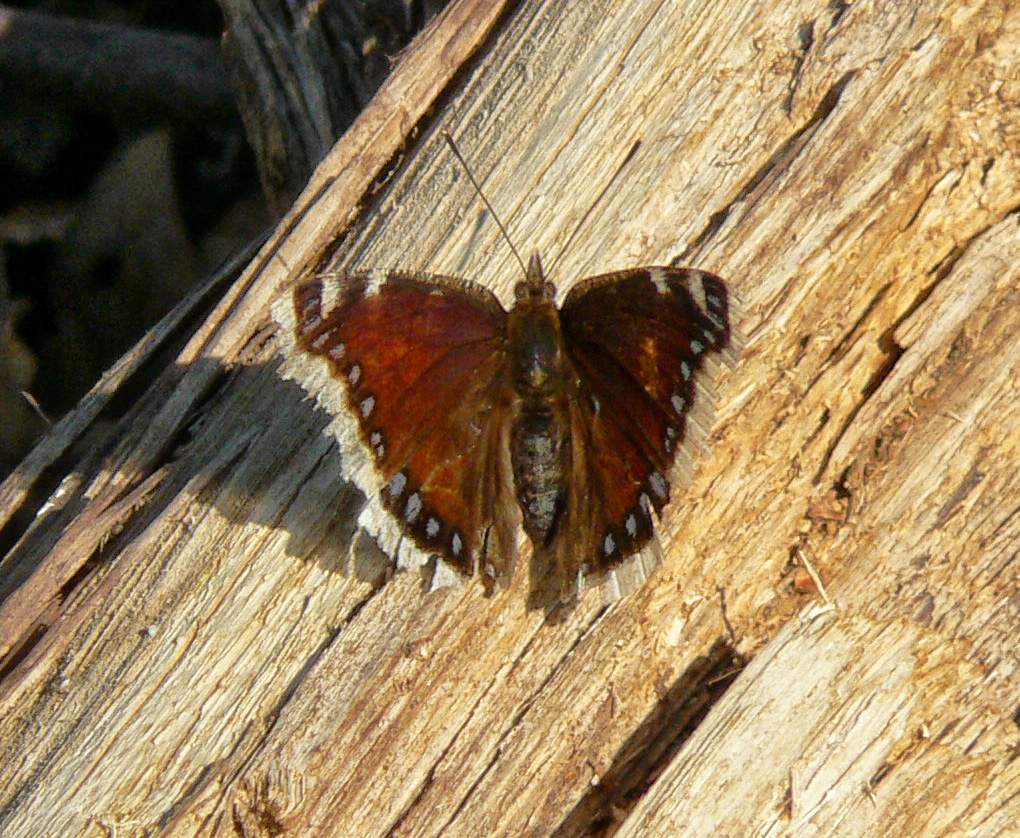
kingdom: Animalia
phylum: Arthropoda
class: Insecta
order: Lepidoptera
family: Nymphalidae
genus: Nymphalis
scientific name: Nymphalis antiopa
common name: Camberwell beauty
